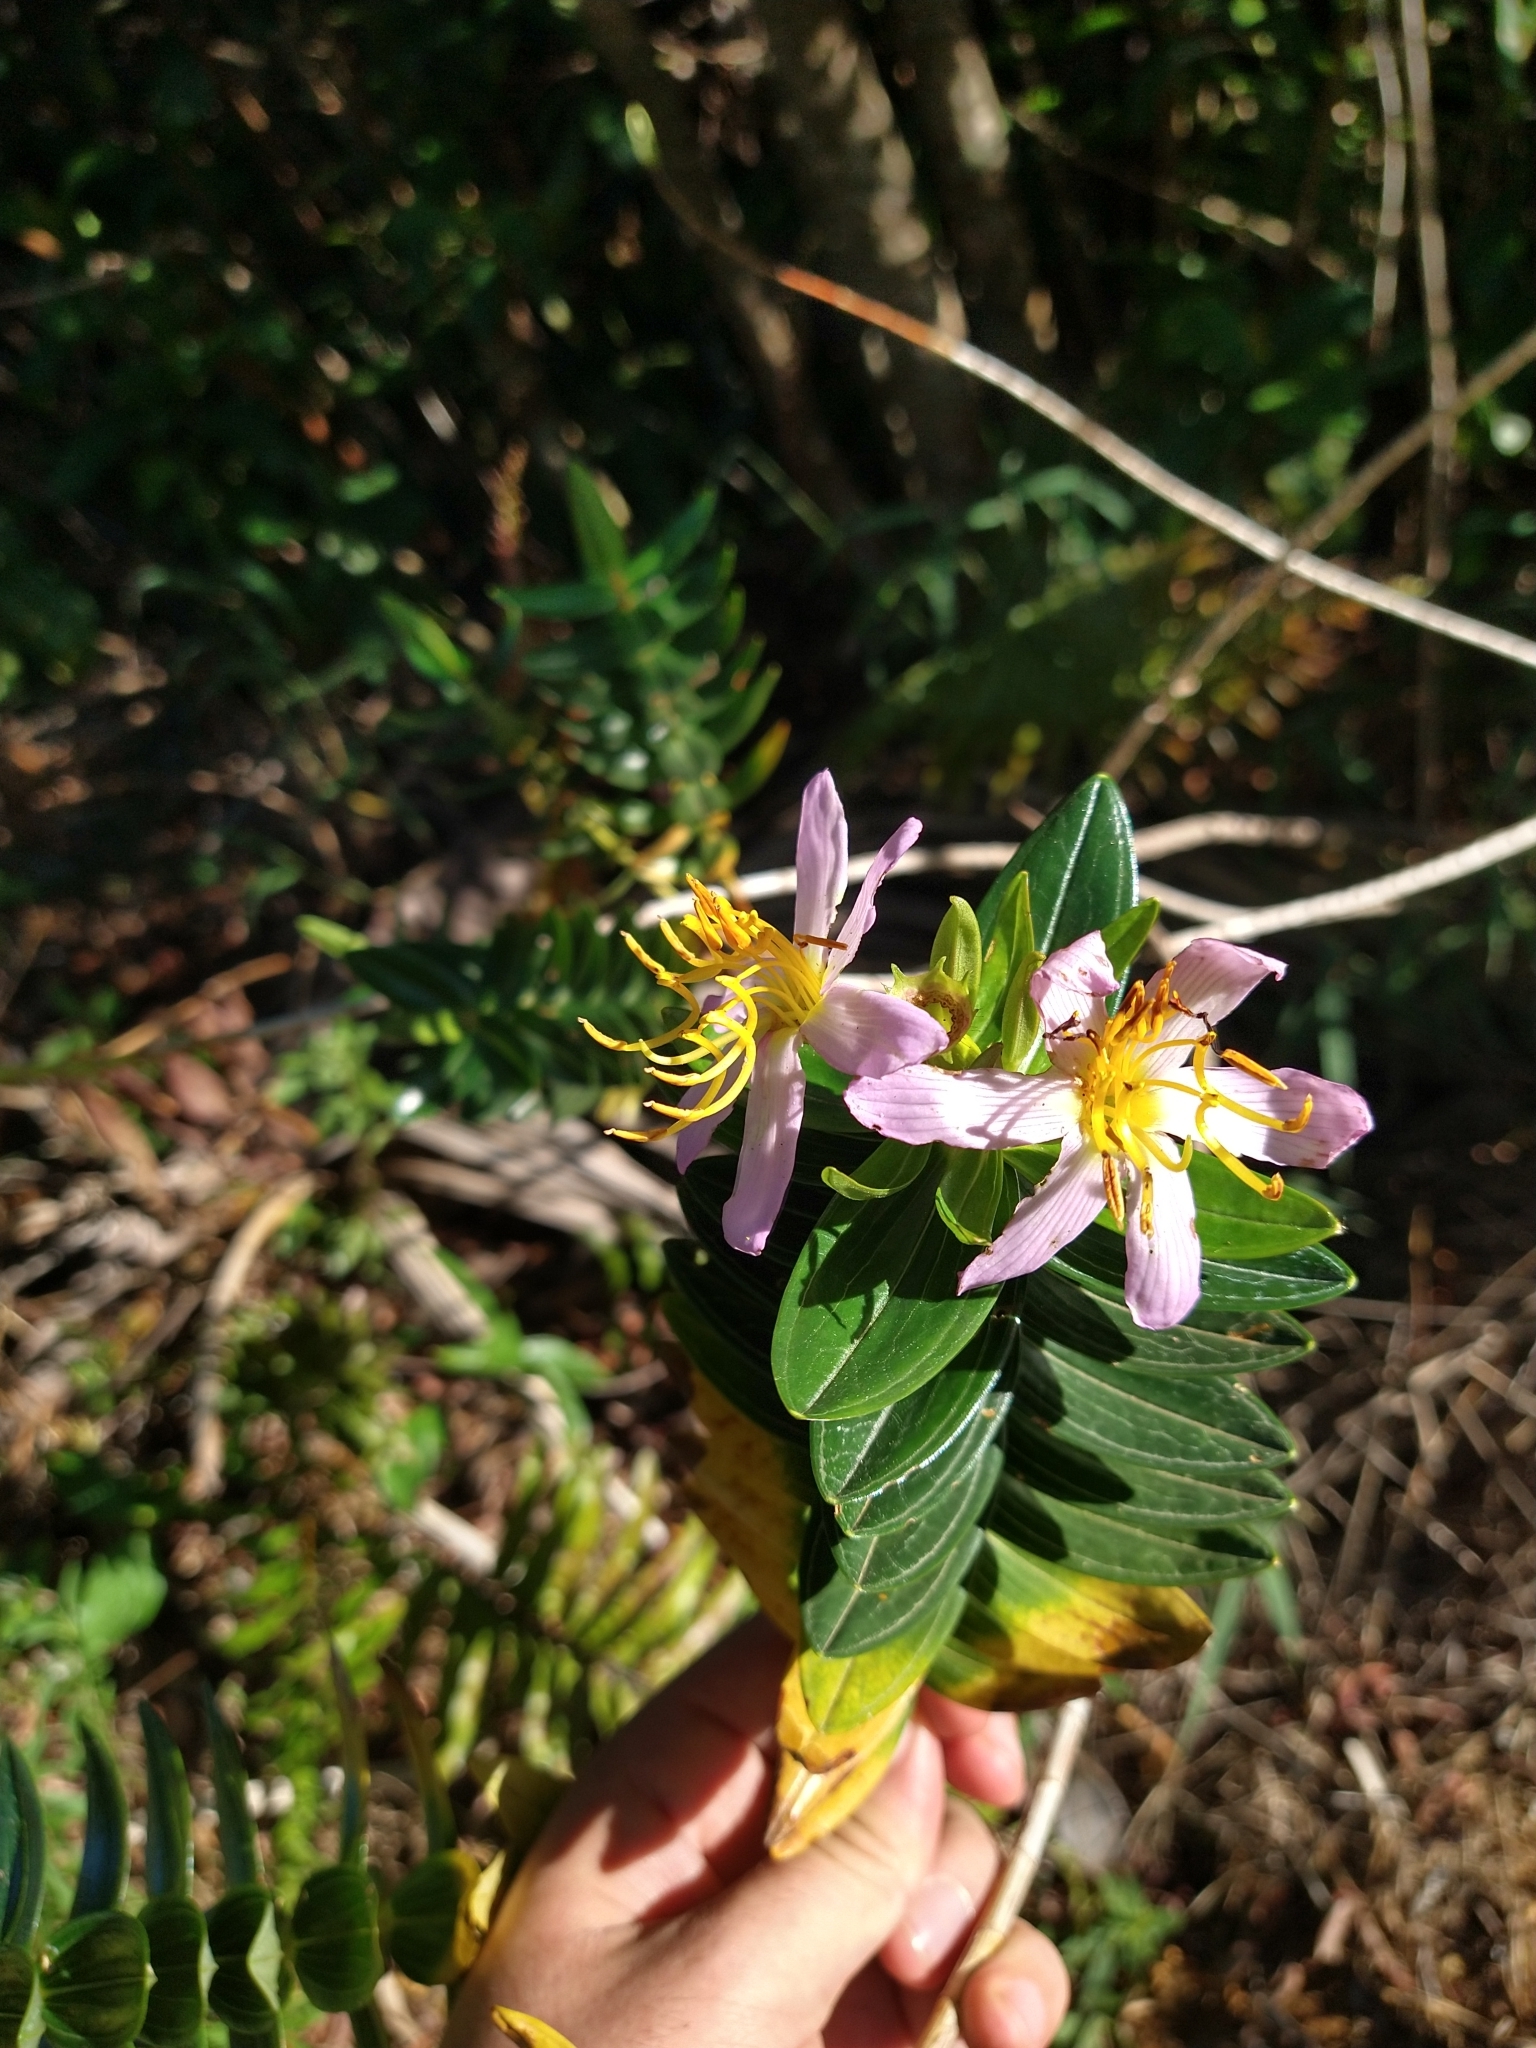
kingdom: Plantae
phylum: Tracheophyta
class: Magnoliopsida
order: Myrtales
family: Melastomataceae
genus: Microlicia
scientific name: Microlicia macrantha
